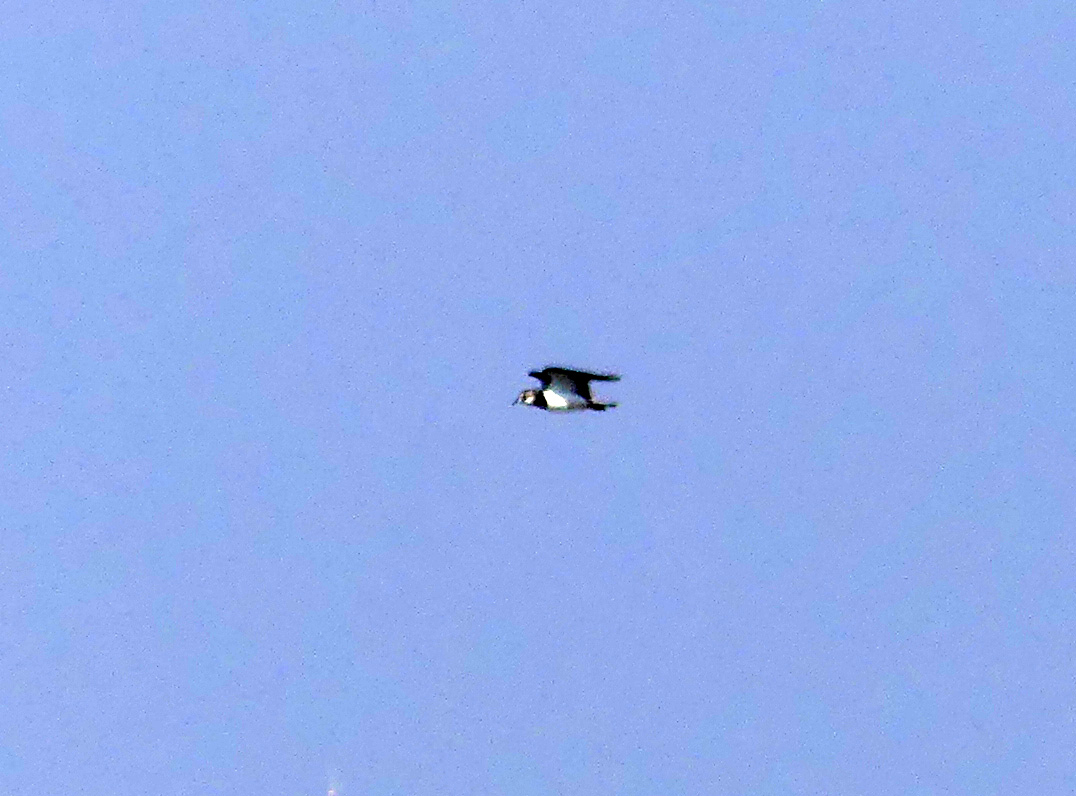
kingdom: Animalia
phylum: Chordata
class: Aves
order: Charadriiformes
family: Charadriidae
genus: Vanellus
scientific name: Vanellus vanellus
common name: Northern lapwing
